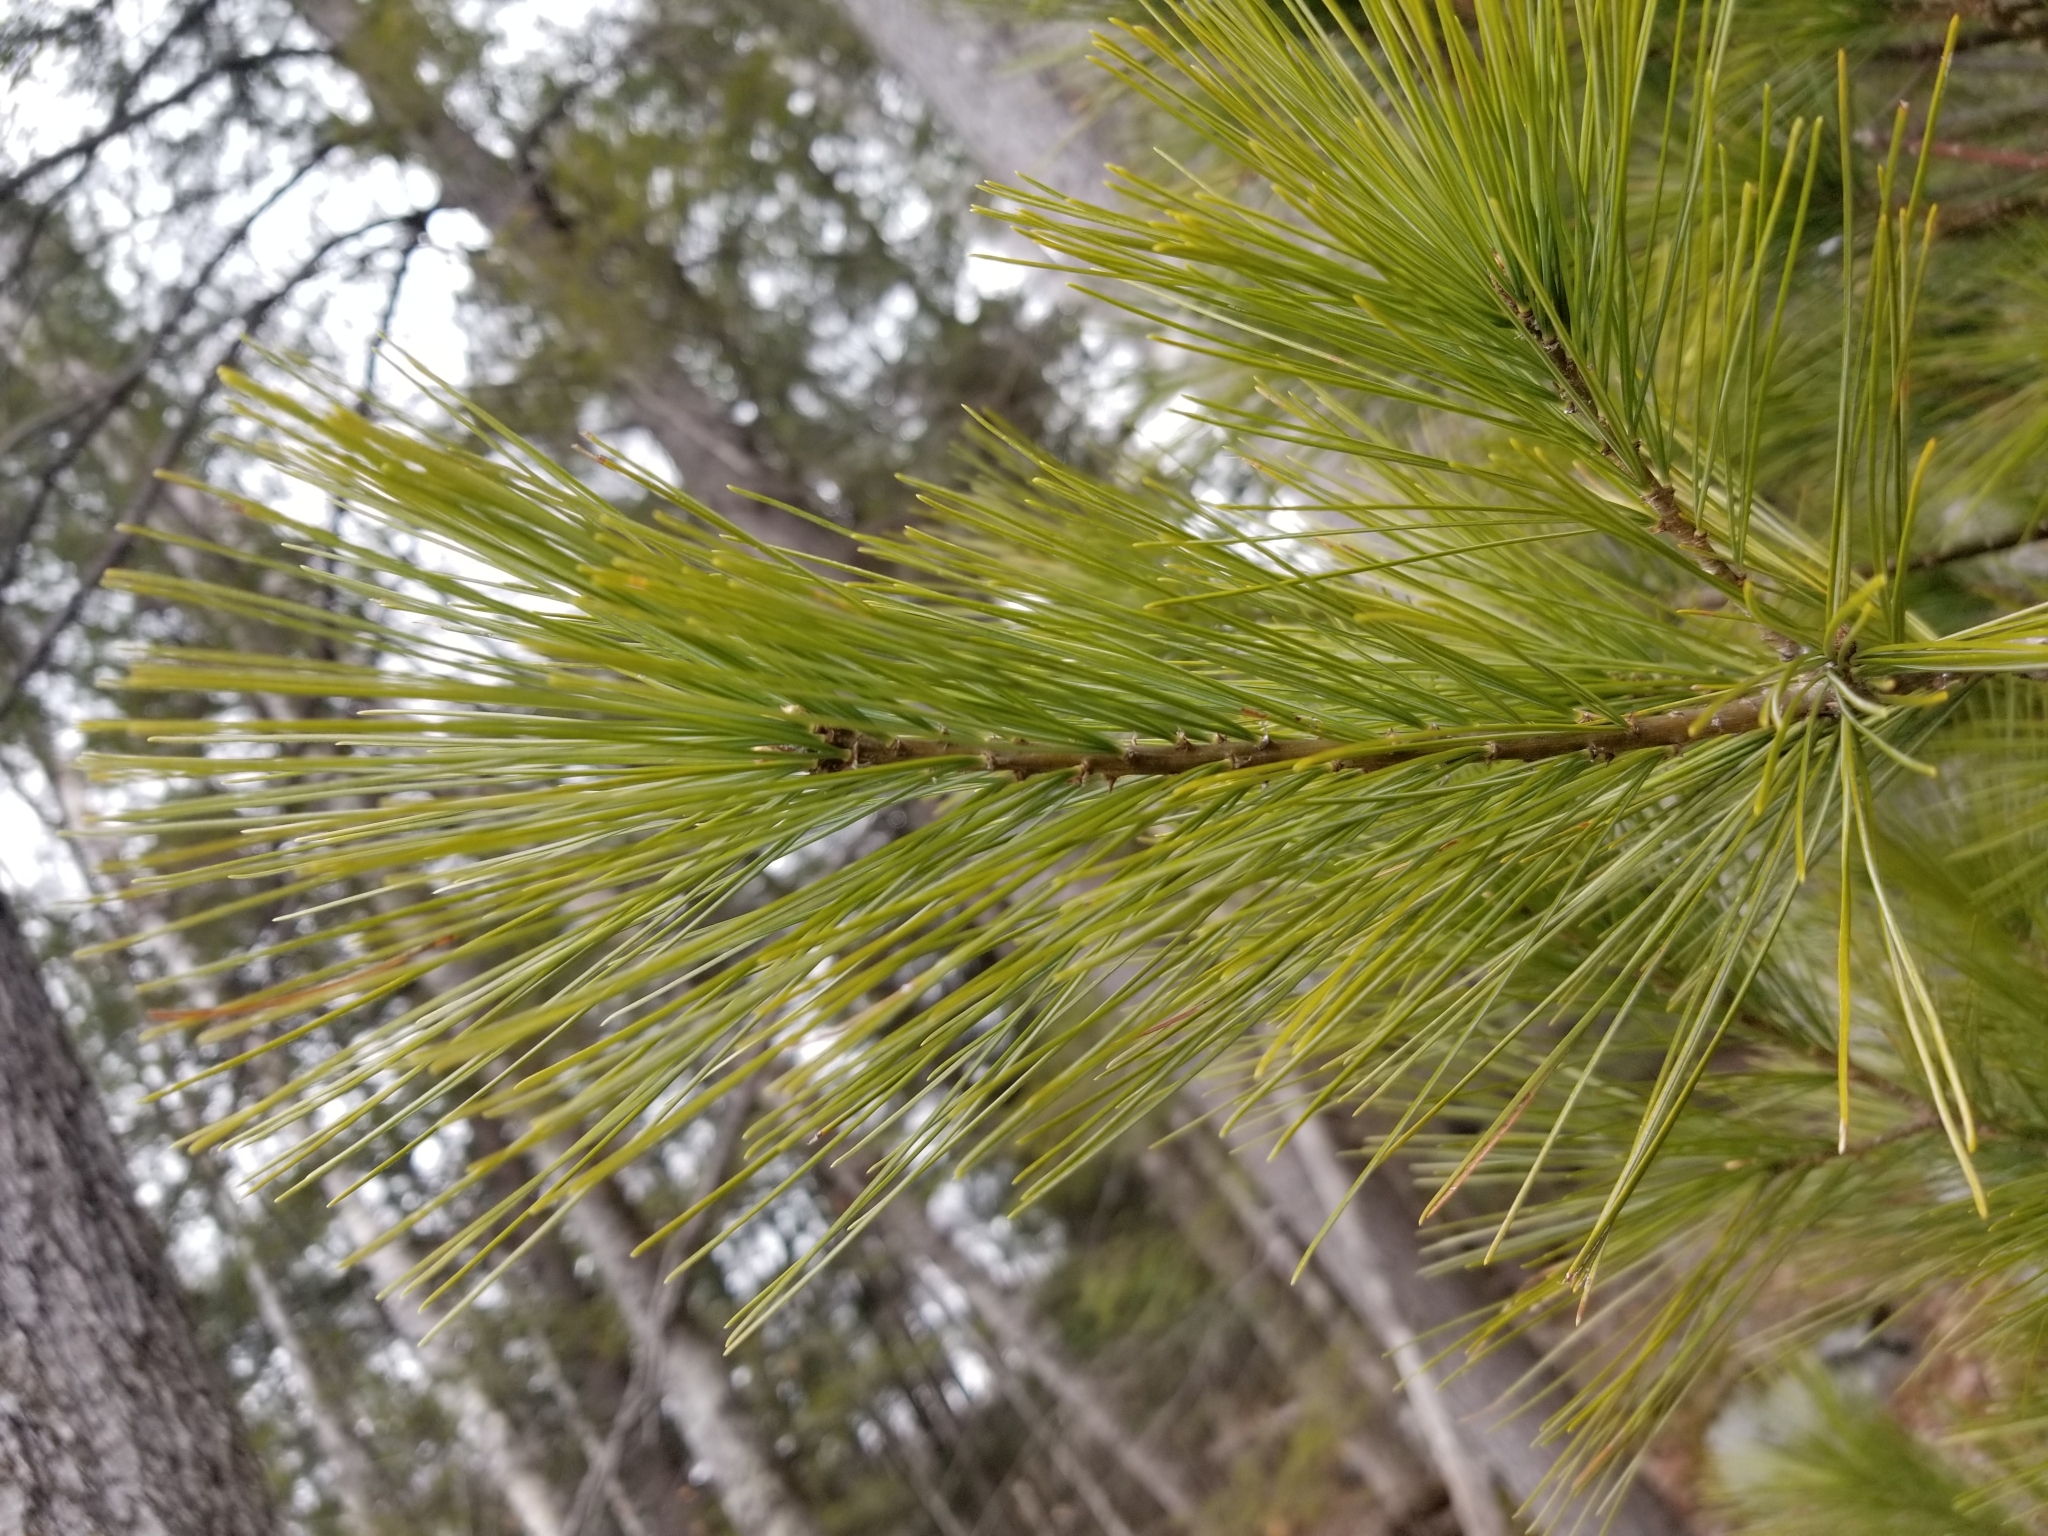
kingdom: Plantae
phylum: Tracheophyta
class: Pinopsida
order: Pinales
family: Pinaceae
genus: Pinus
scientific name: Pinus strobus
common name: Weymouth pine
